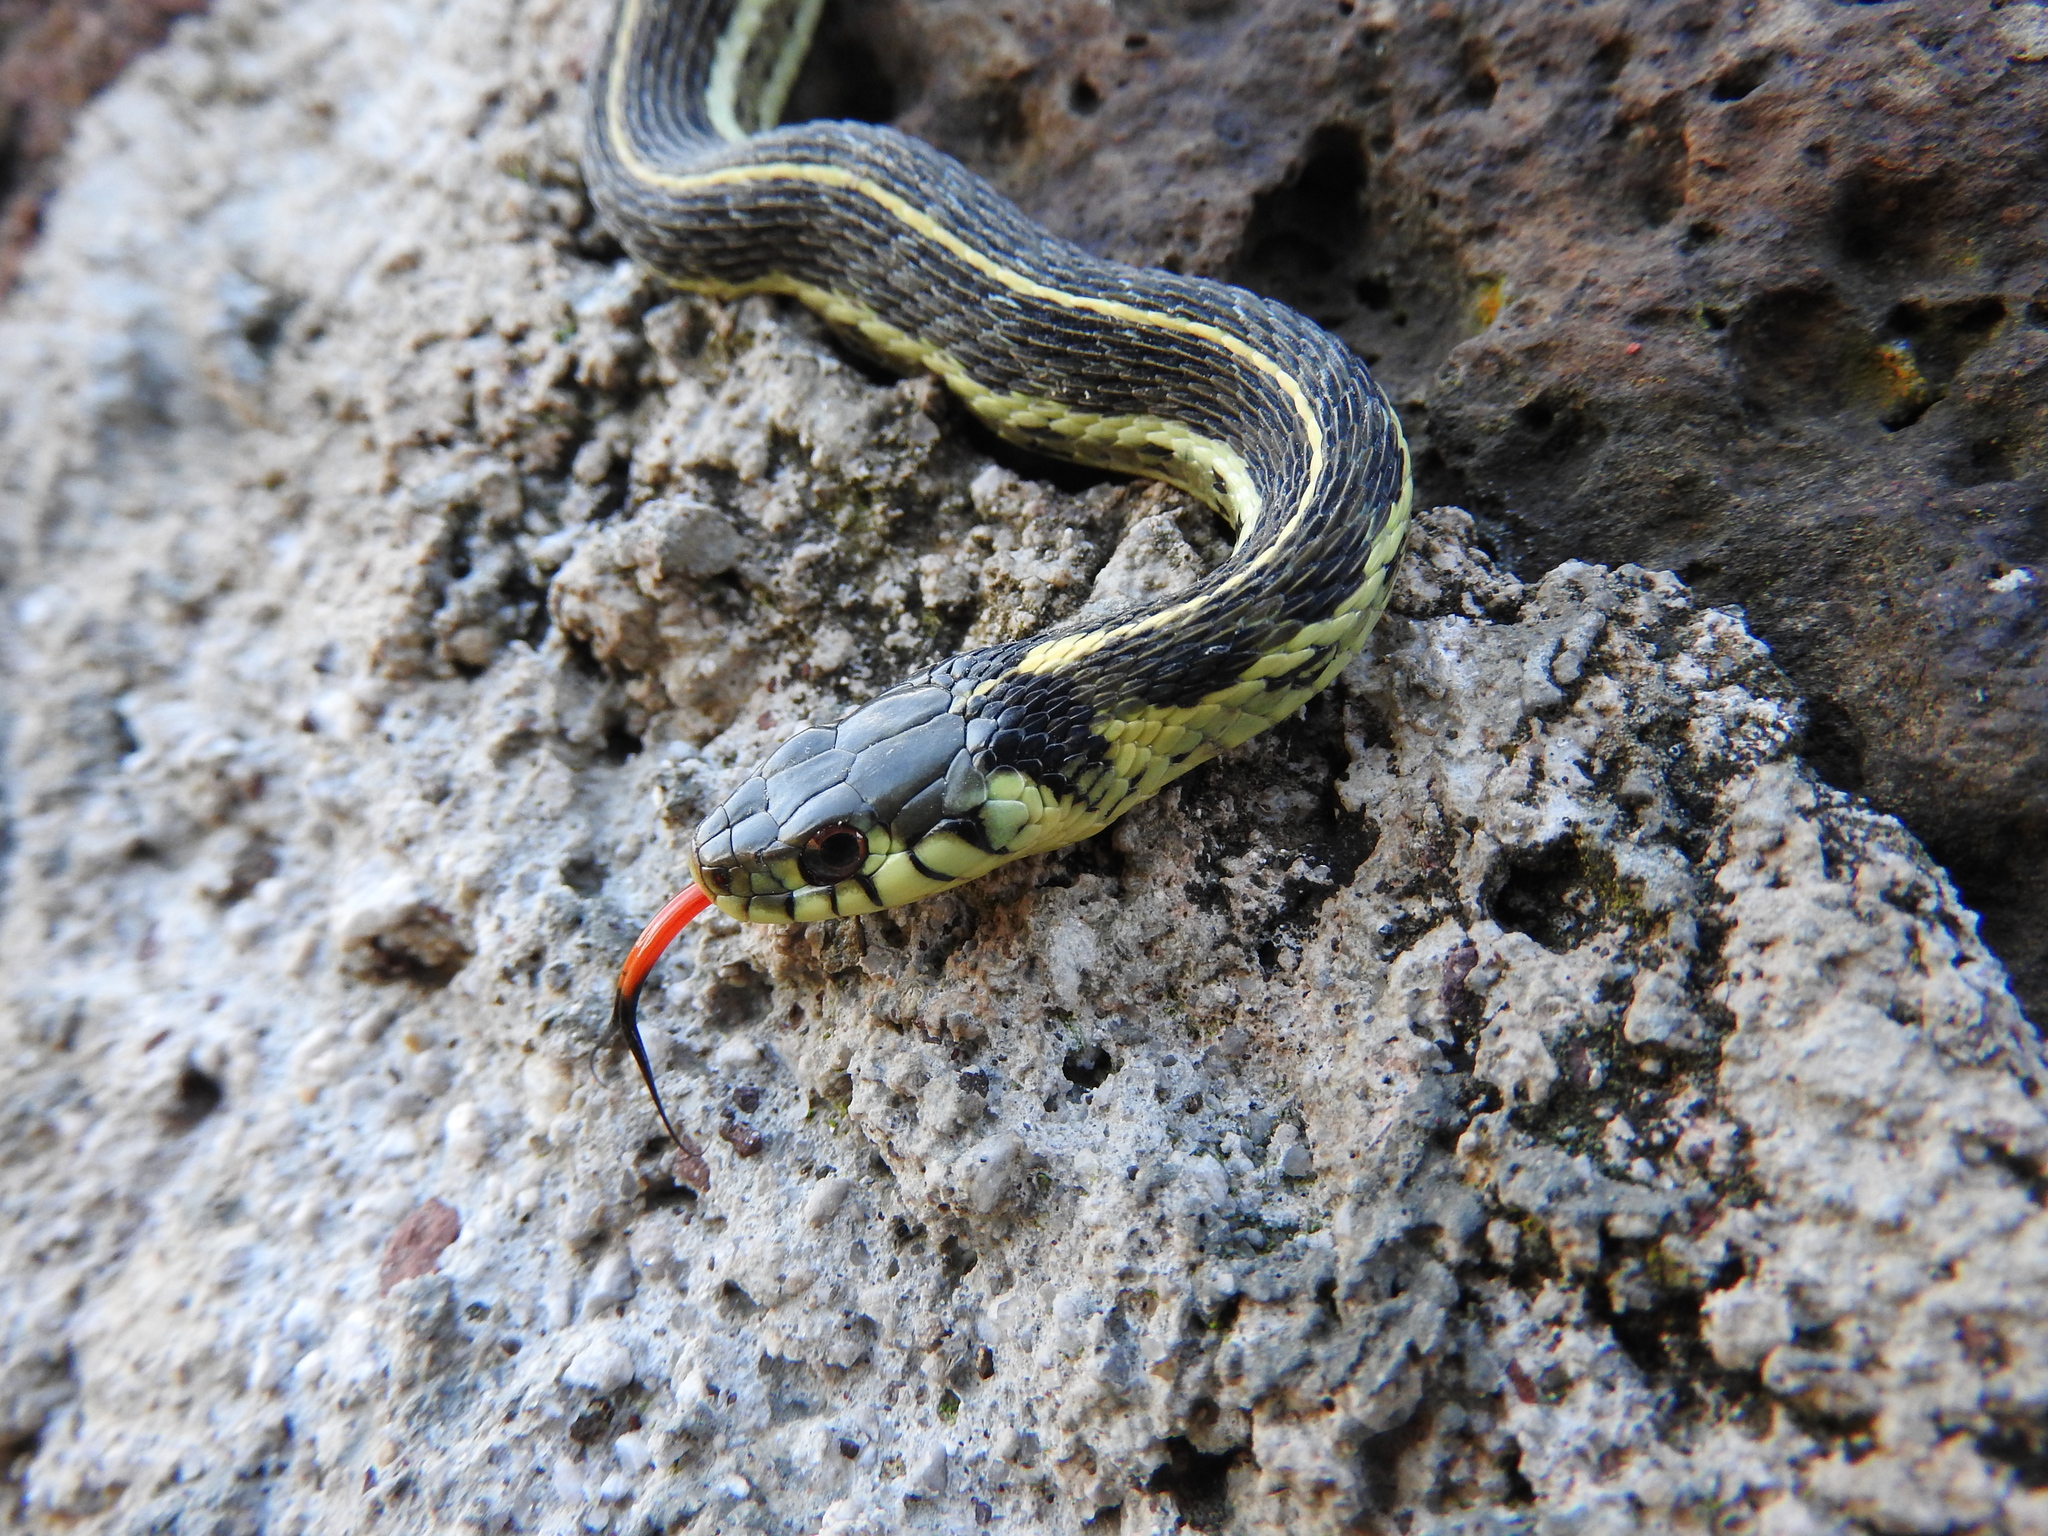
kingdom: Animalia
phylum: Chordata
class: Squamata
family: Colubridae
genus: Thamnophis
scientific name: Thamnophis eques
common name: Mexican garter snake
